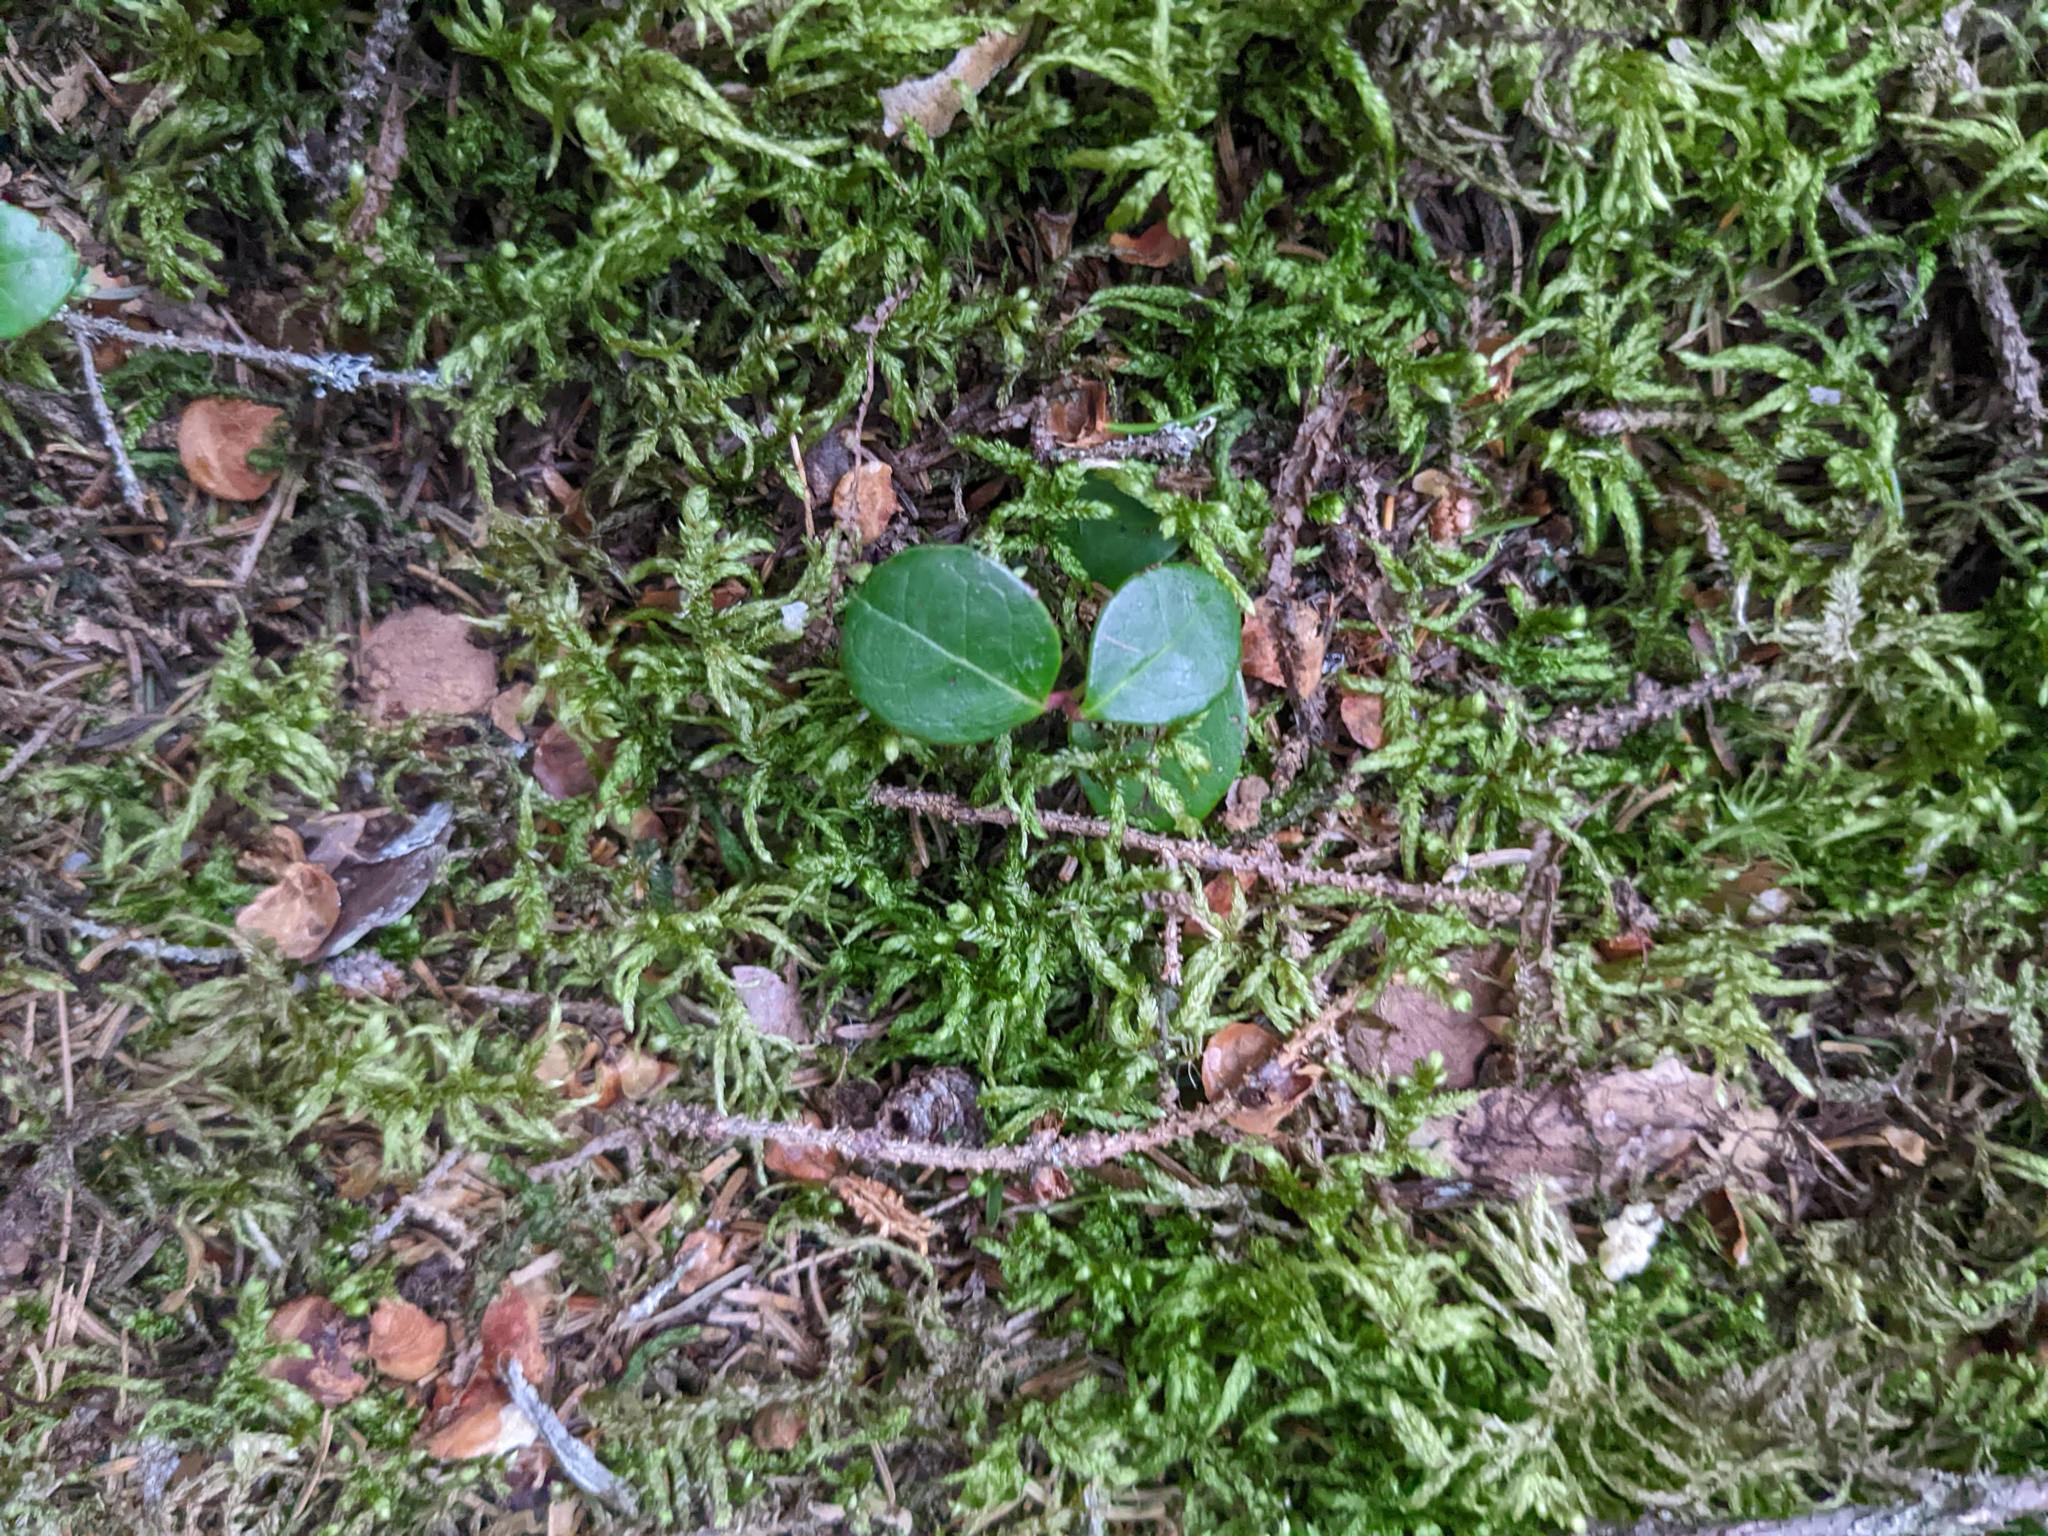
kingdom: Plantae
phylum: Tracheophyta
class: Magnoliopsida
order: Ericales
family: Ericaceae
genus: Gaultheria
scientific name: Gaultheria procumbens
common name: Checkerberry
